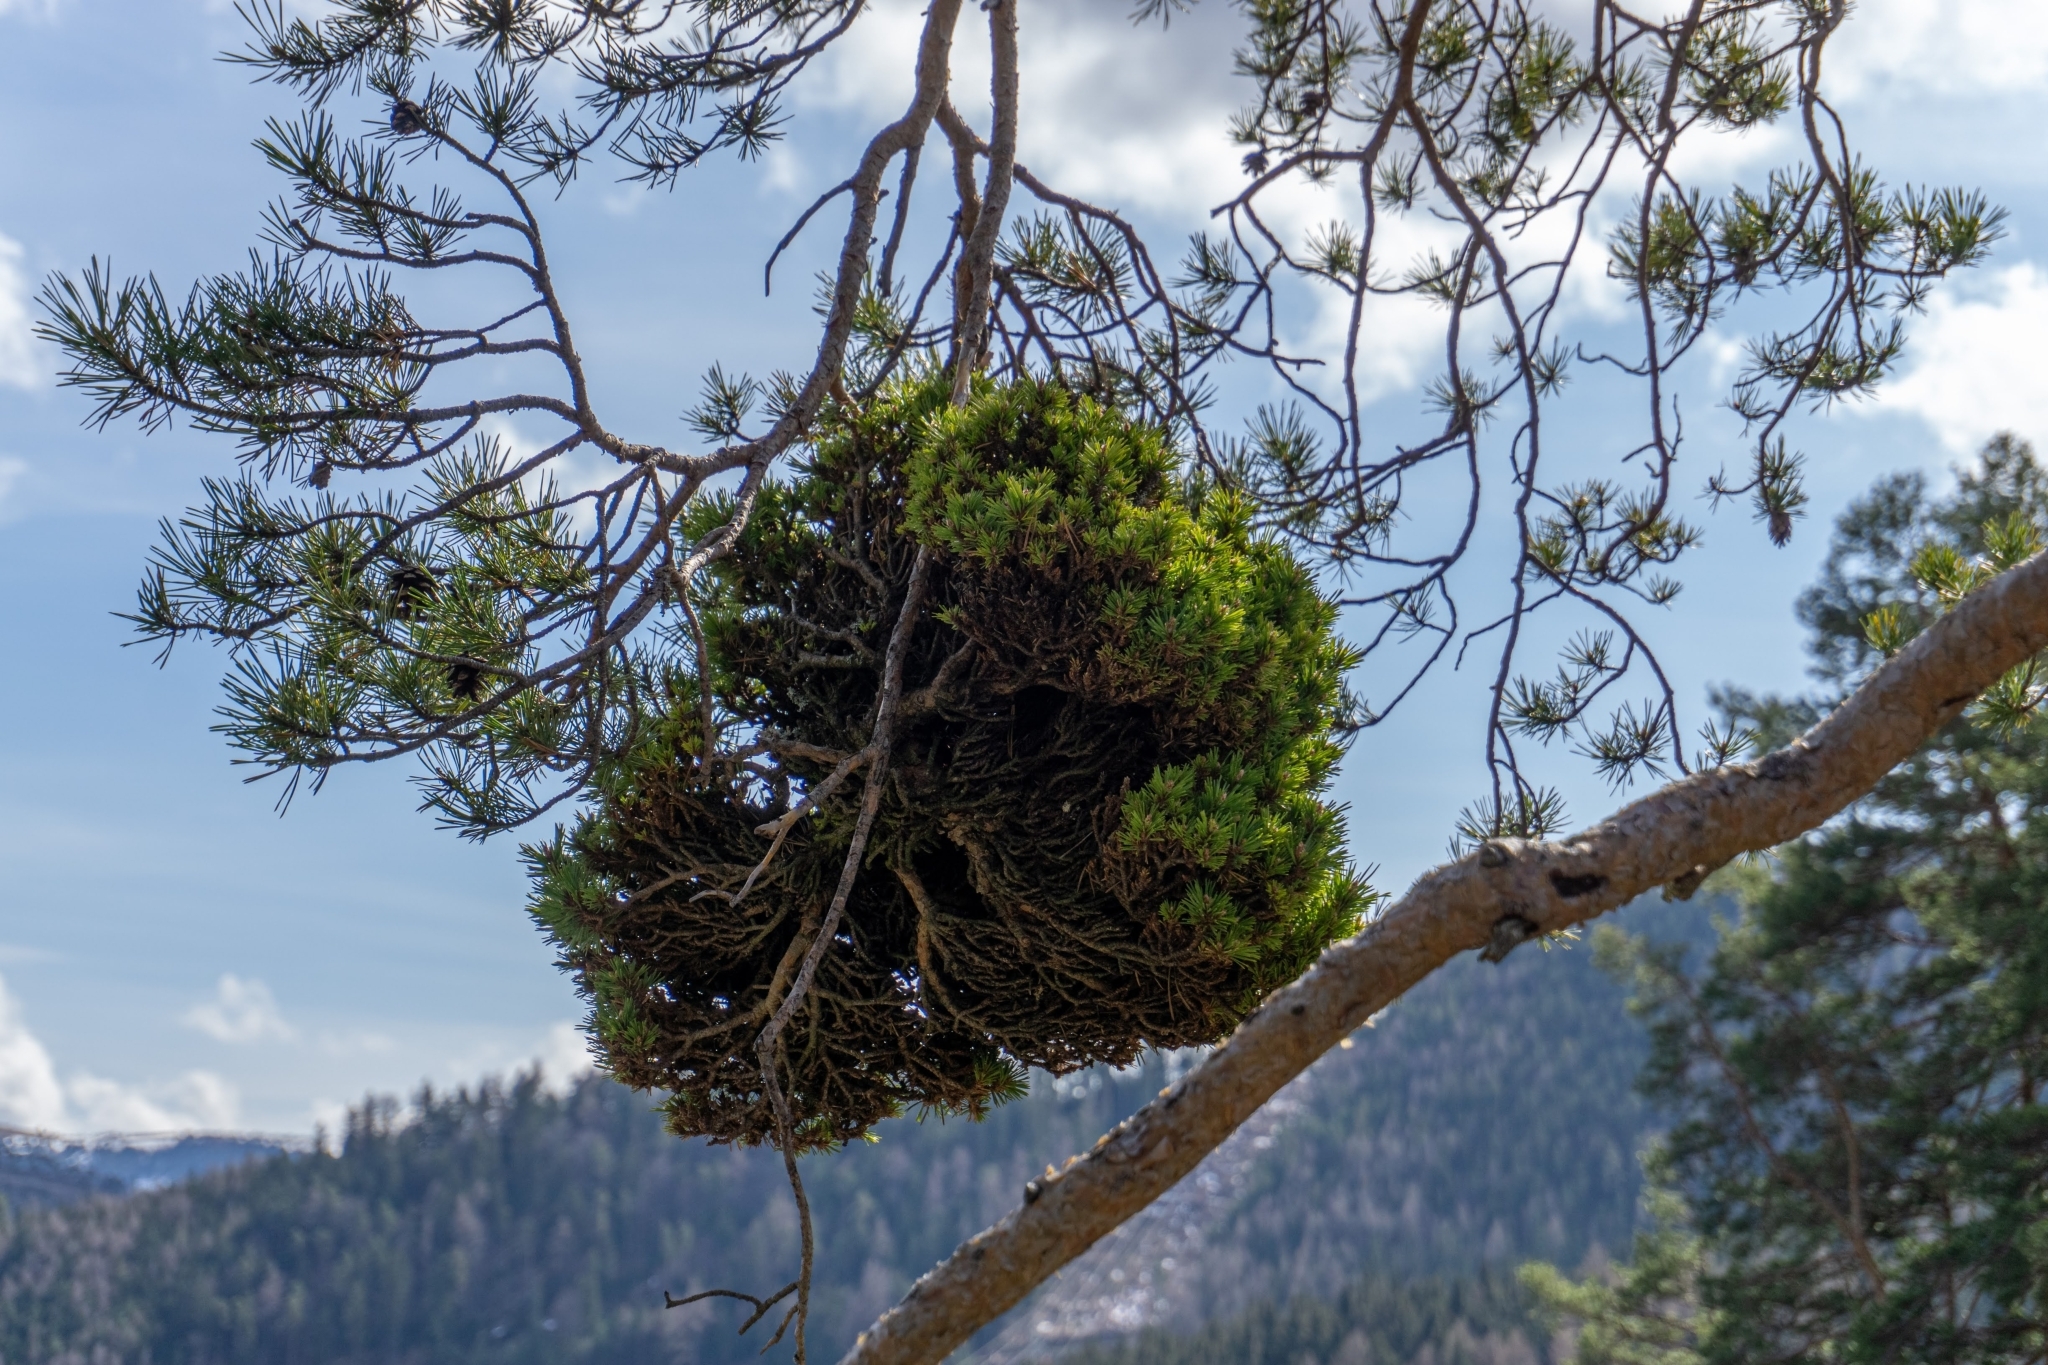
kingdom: Plantae
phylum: Tracheophyta
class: Pinopsida
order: Pinales
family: Pinaceae
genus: Pinus
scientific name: Pinus sylvestris
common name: Scots pine
